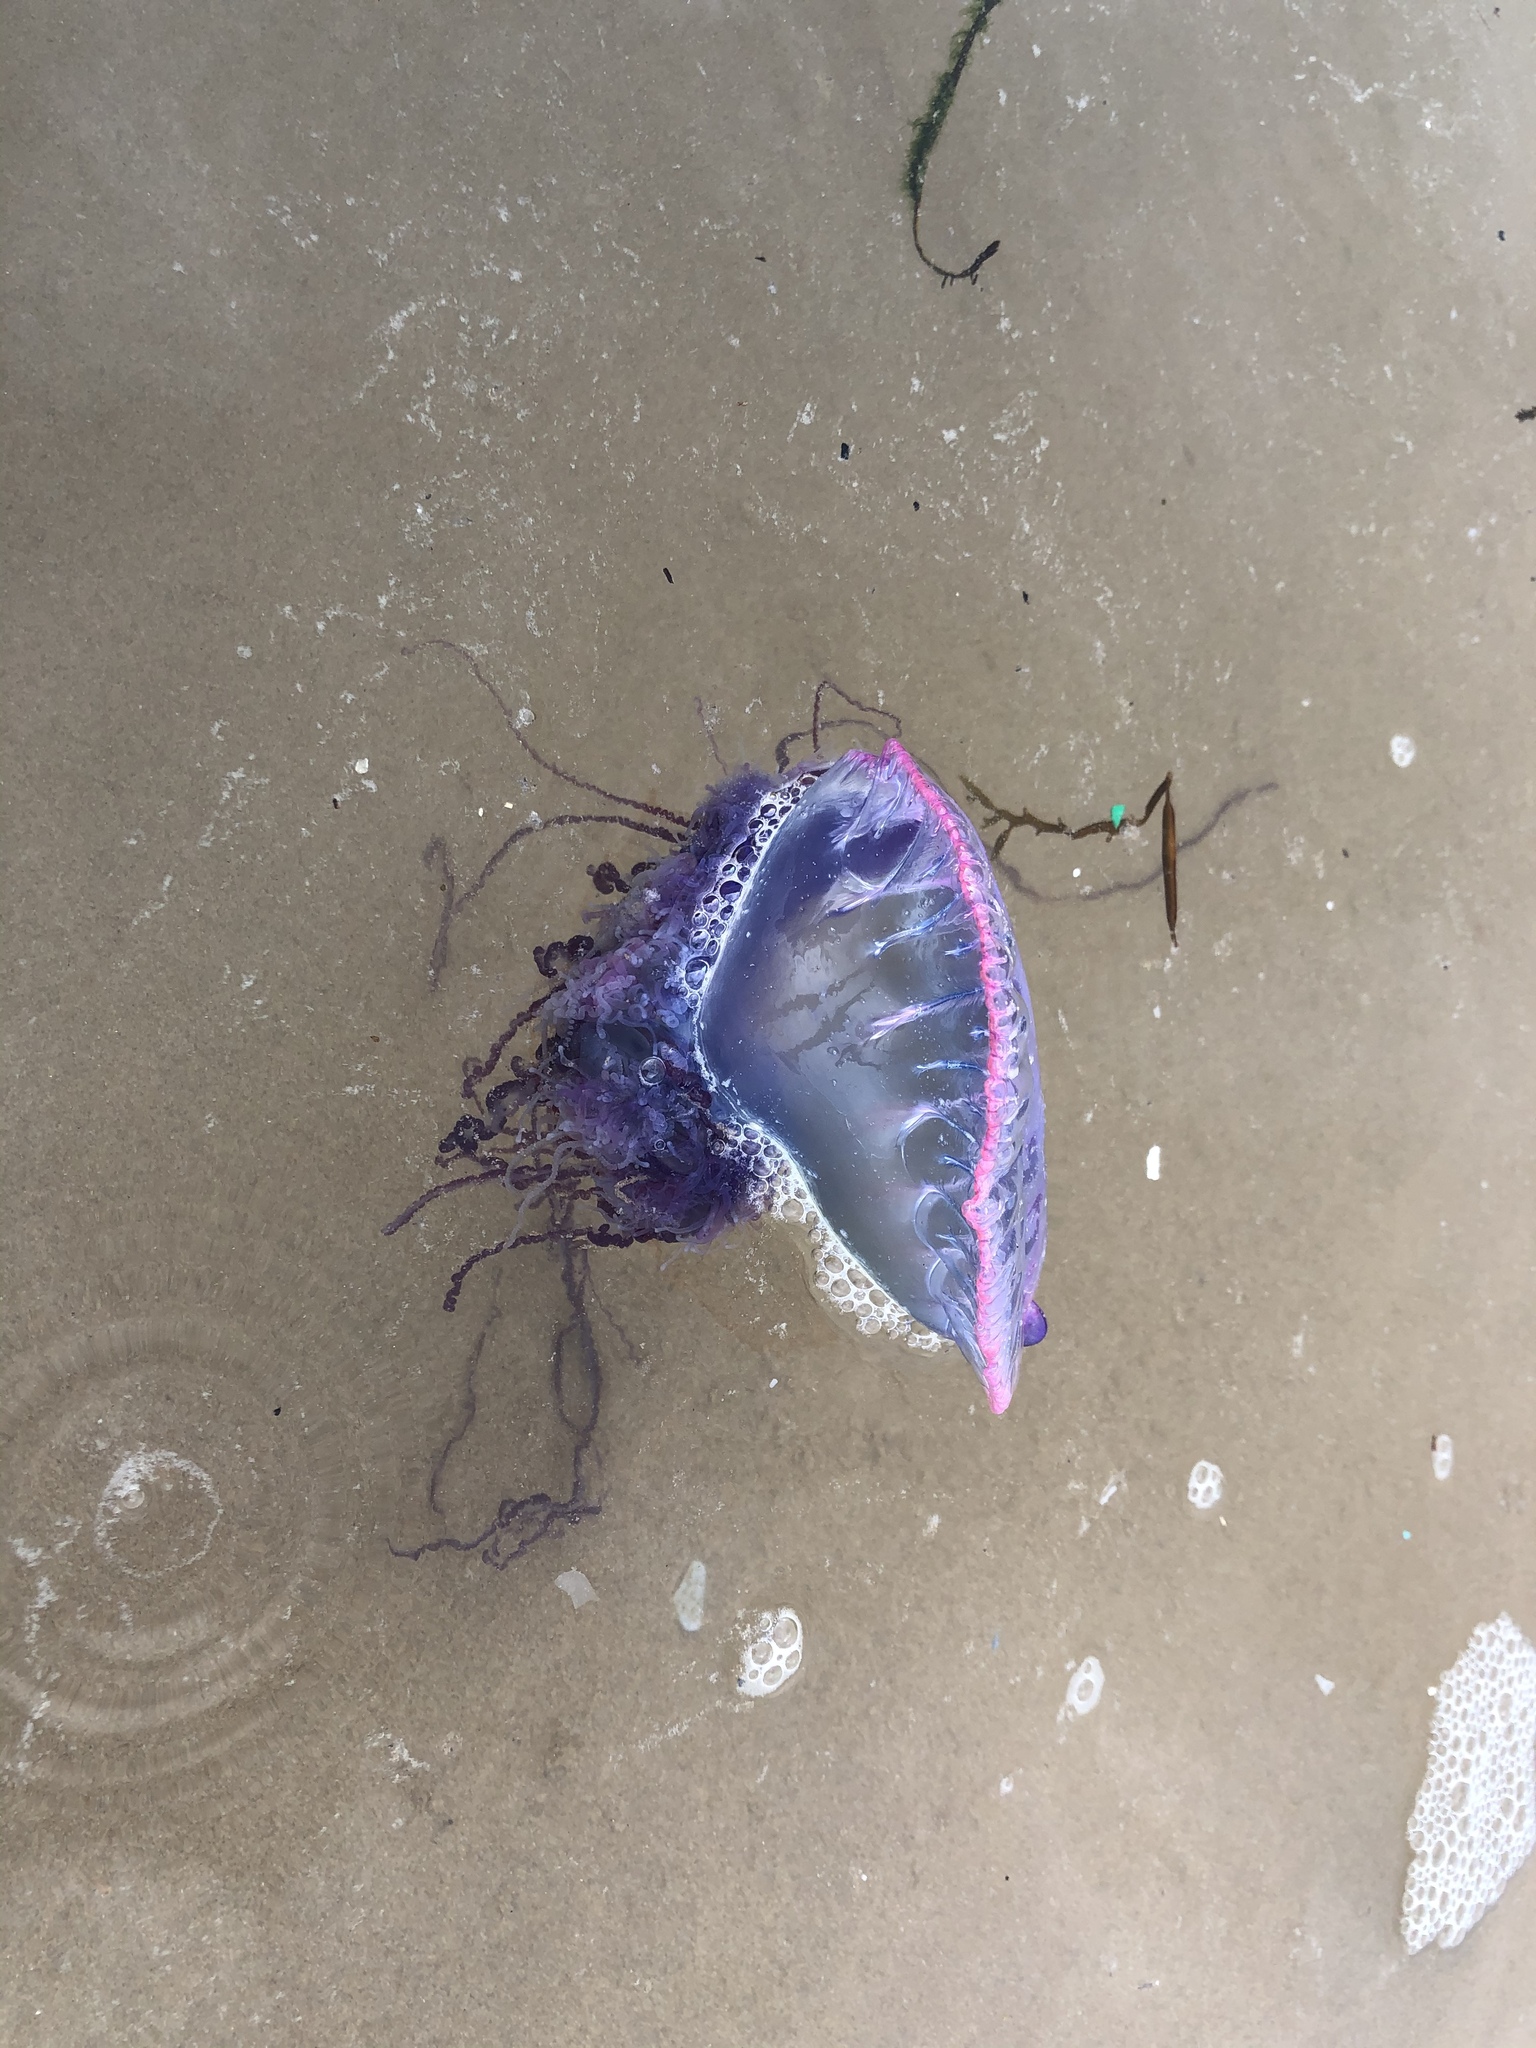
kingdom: Animalia
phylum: Cnidaria
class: Hydrozoa
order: Siphonophorae
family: Physaliidae
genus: Physalia
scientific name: Physalia physalis
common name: Portuguese man-of-war
